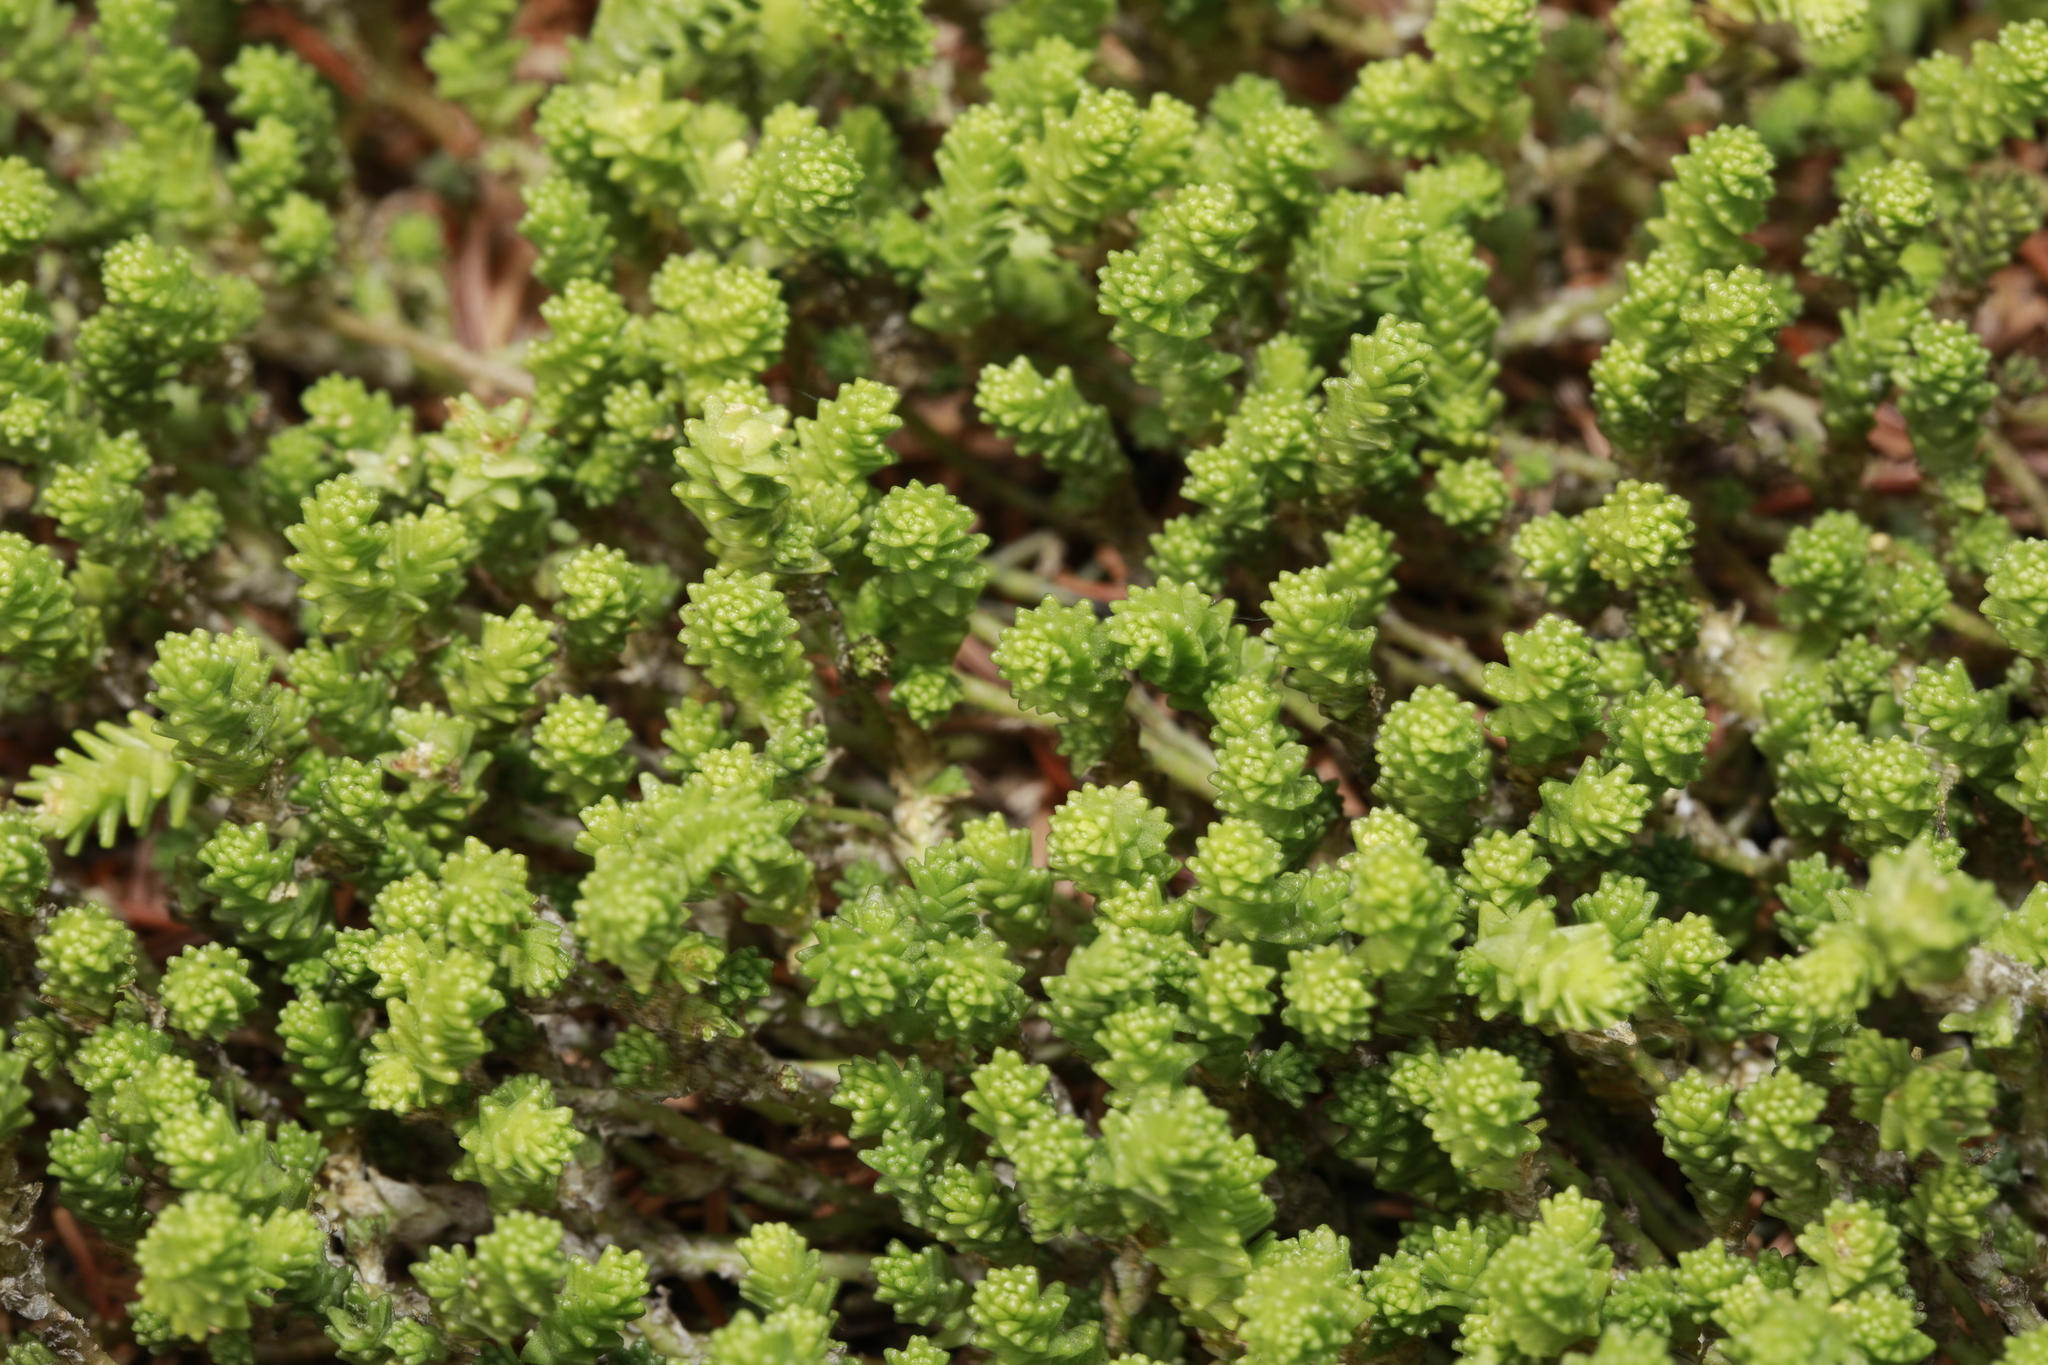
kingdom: Plantae
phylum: Tracheophyta
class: Magnoliopsida
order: Saxifragales
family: Crassulaceae
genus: Sedum
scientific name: Sedum acre
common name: Biting stonecrop
